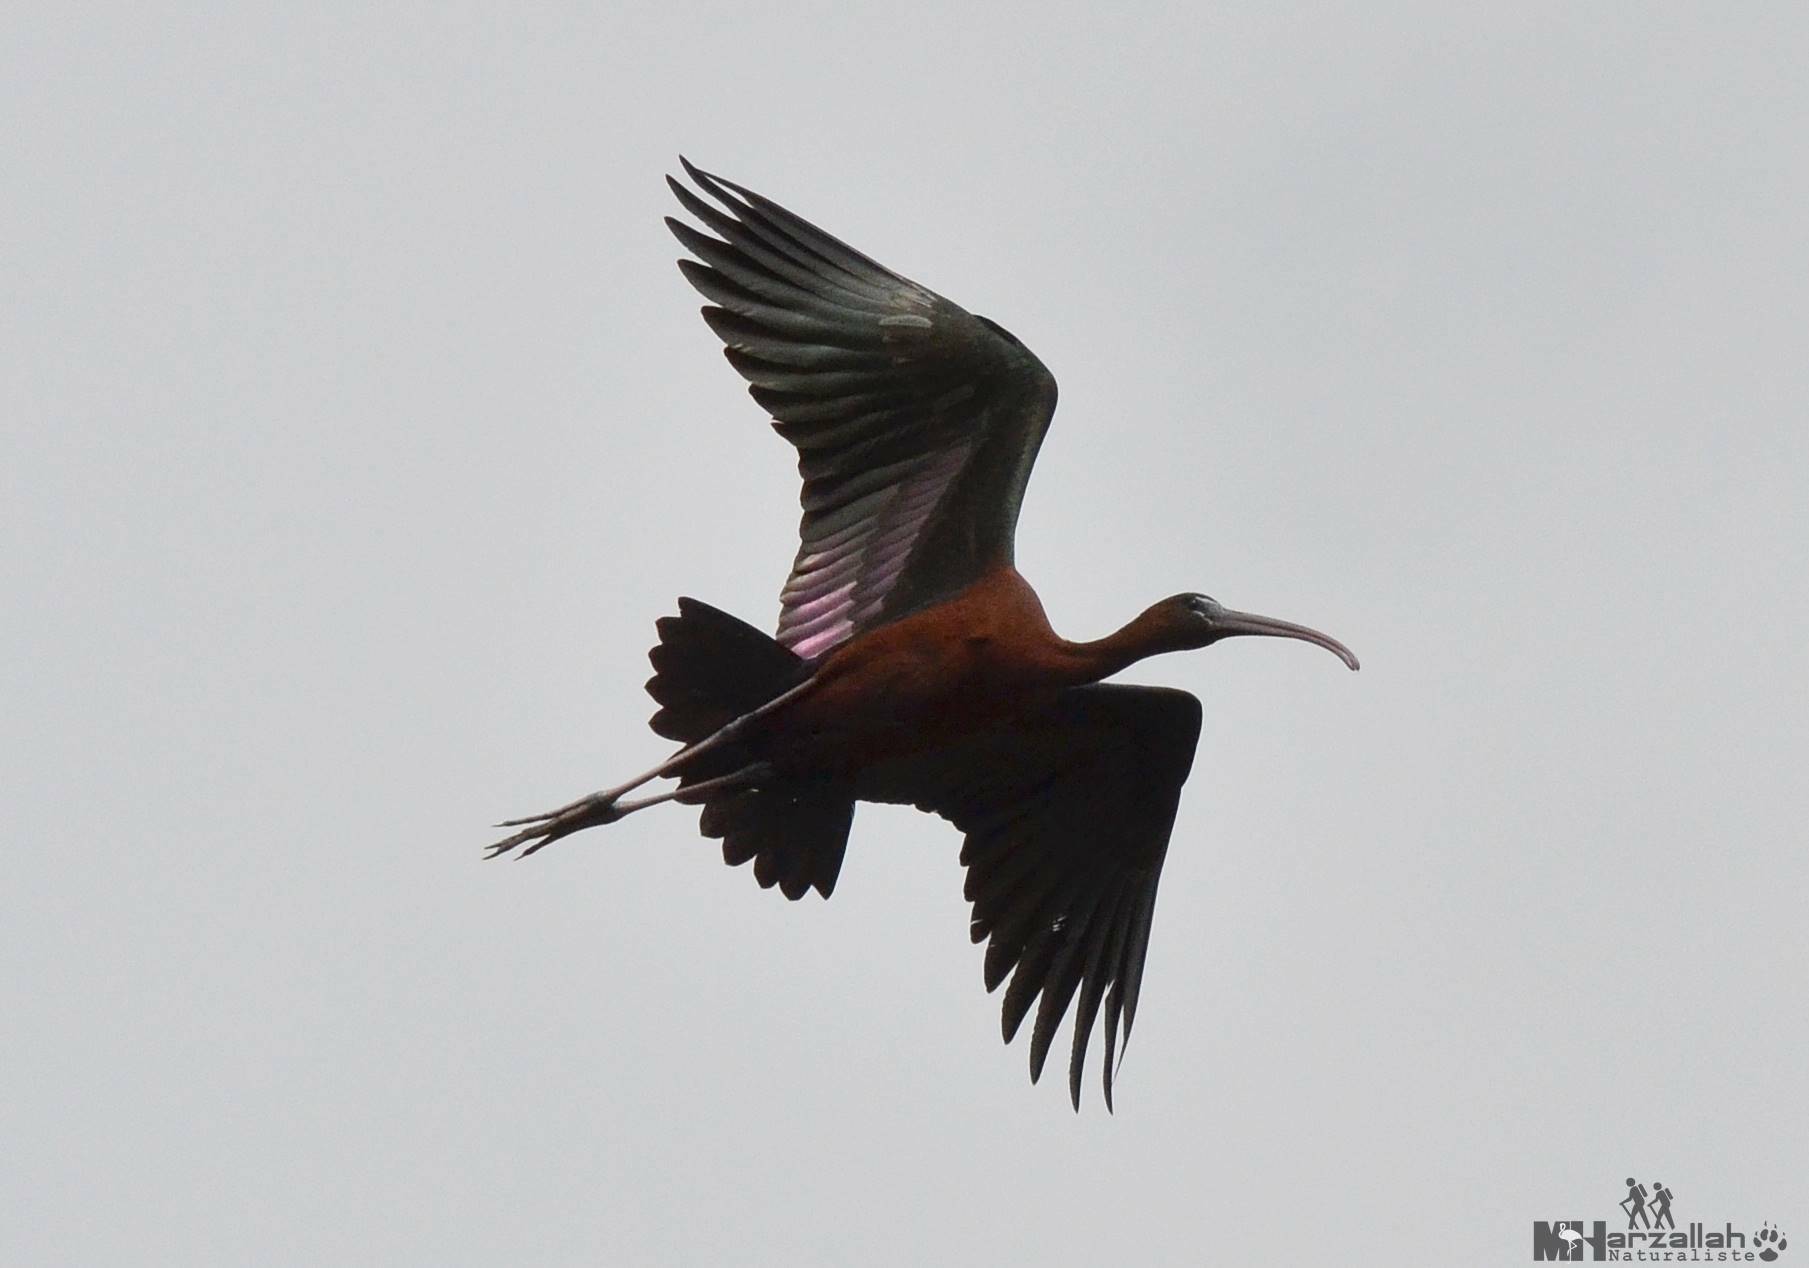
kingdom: Animalia
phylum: Chordata
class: Aves
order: Pelecaniformes
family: Threskiornithidae
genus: Plegadis
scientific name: Plegadis falcinellus
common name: Glossy ibis
